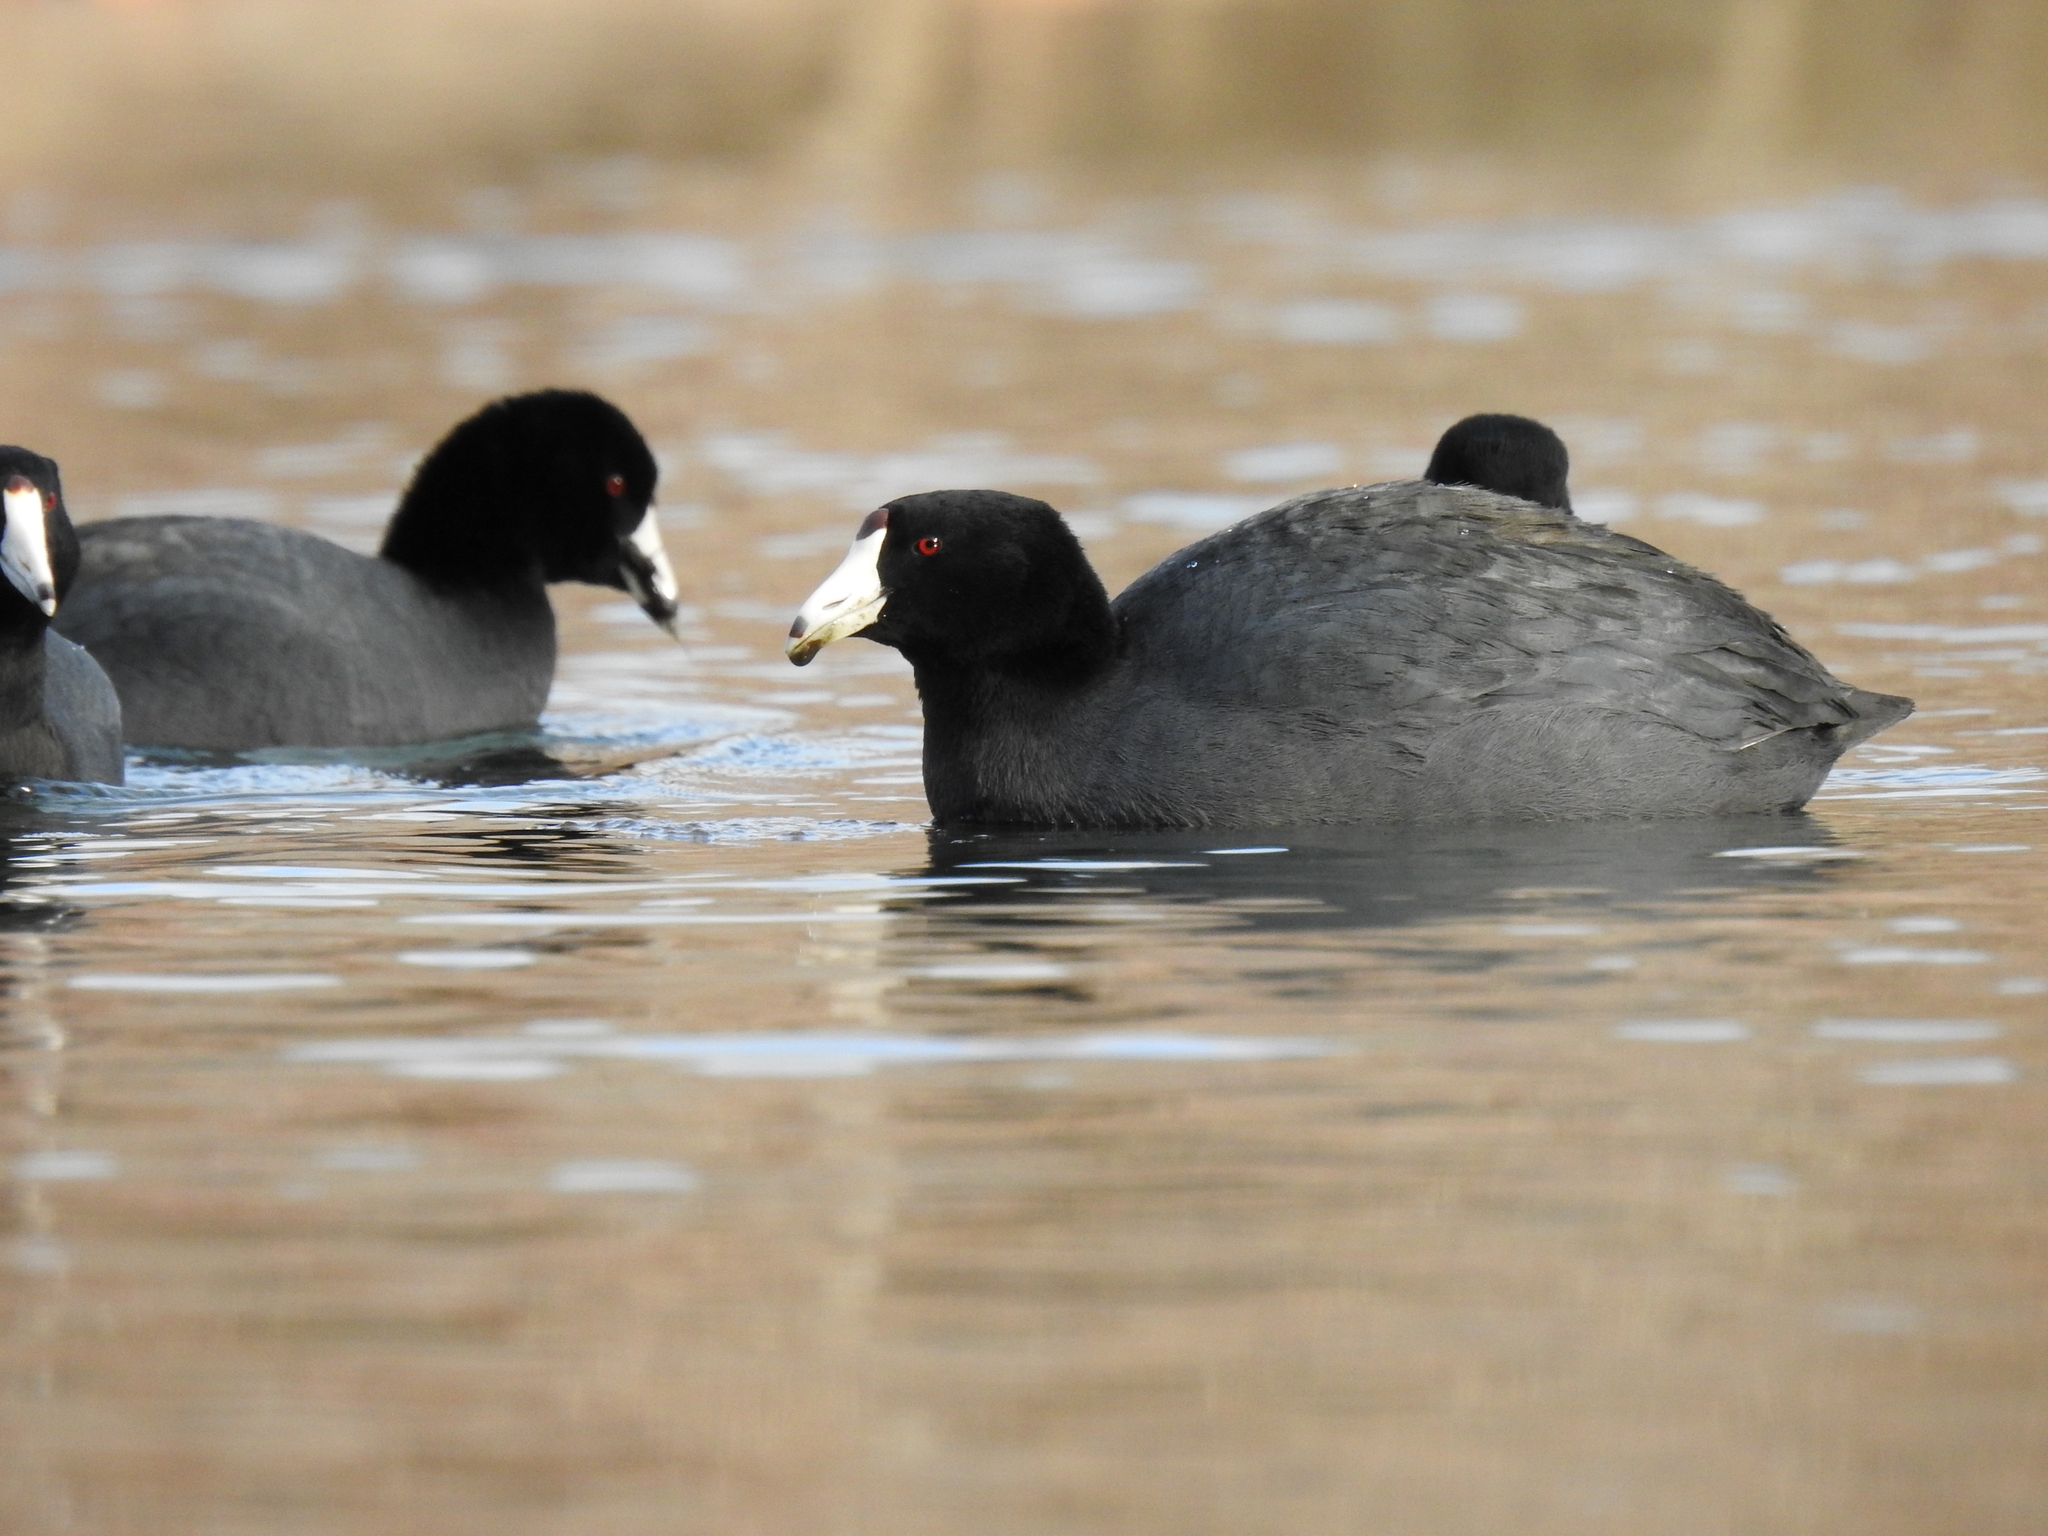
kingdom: Animalia
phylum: Chordata
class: Aves
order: Gruiformes
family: Rallidae
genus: Fulica
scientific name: Fulica americana
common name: American coot
